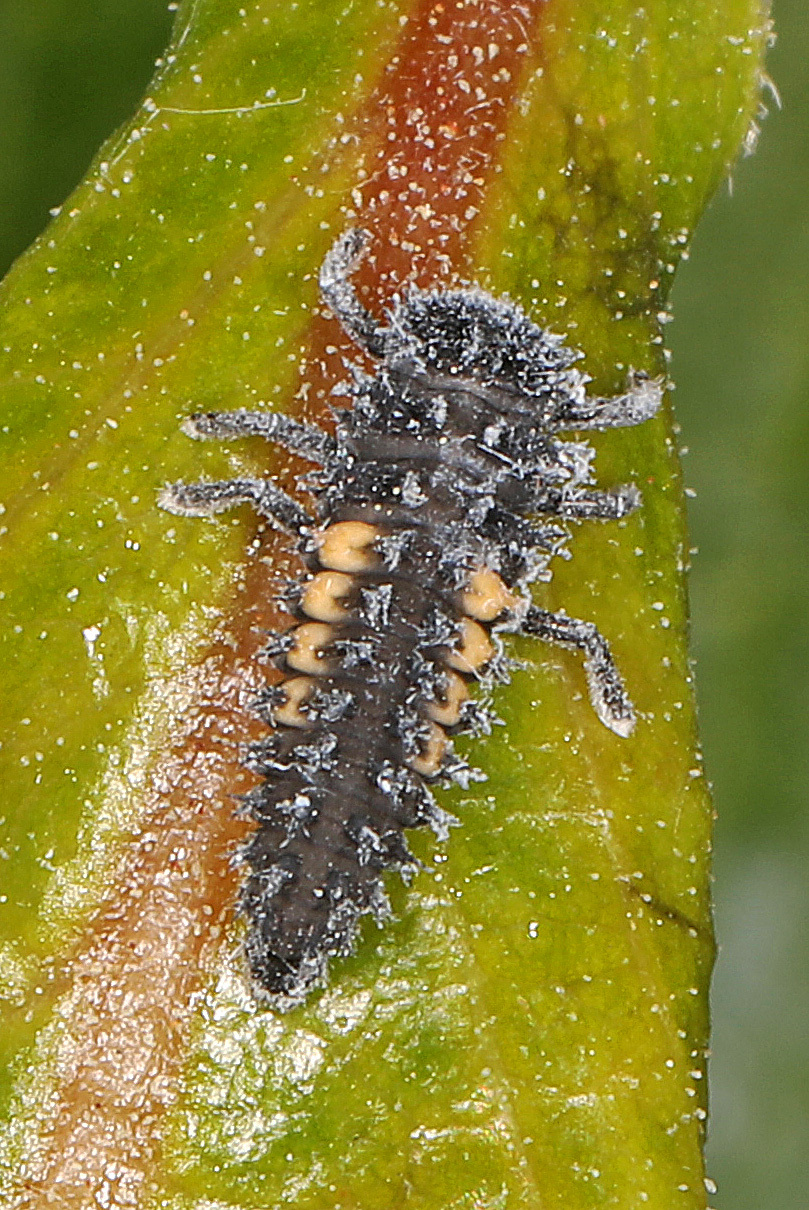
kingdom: Animalia
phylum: Arthropoda
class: Insecta
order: Coleoptera
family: Coccinellidae
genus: Harmonia
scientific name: Harmonia axyridis
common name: Harlequin ladybird
